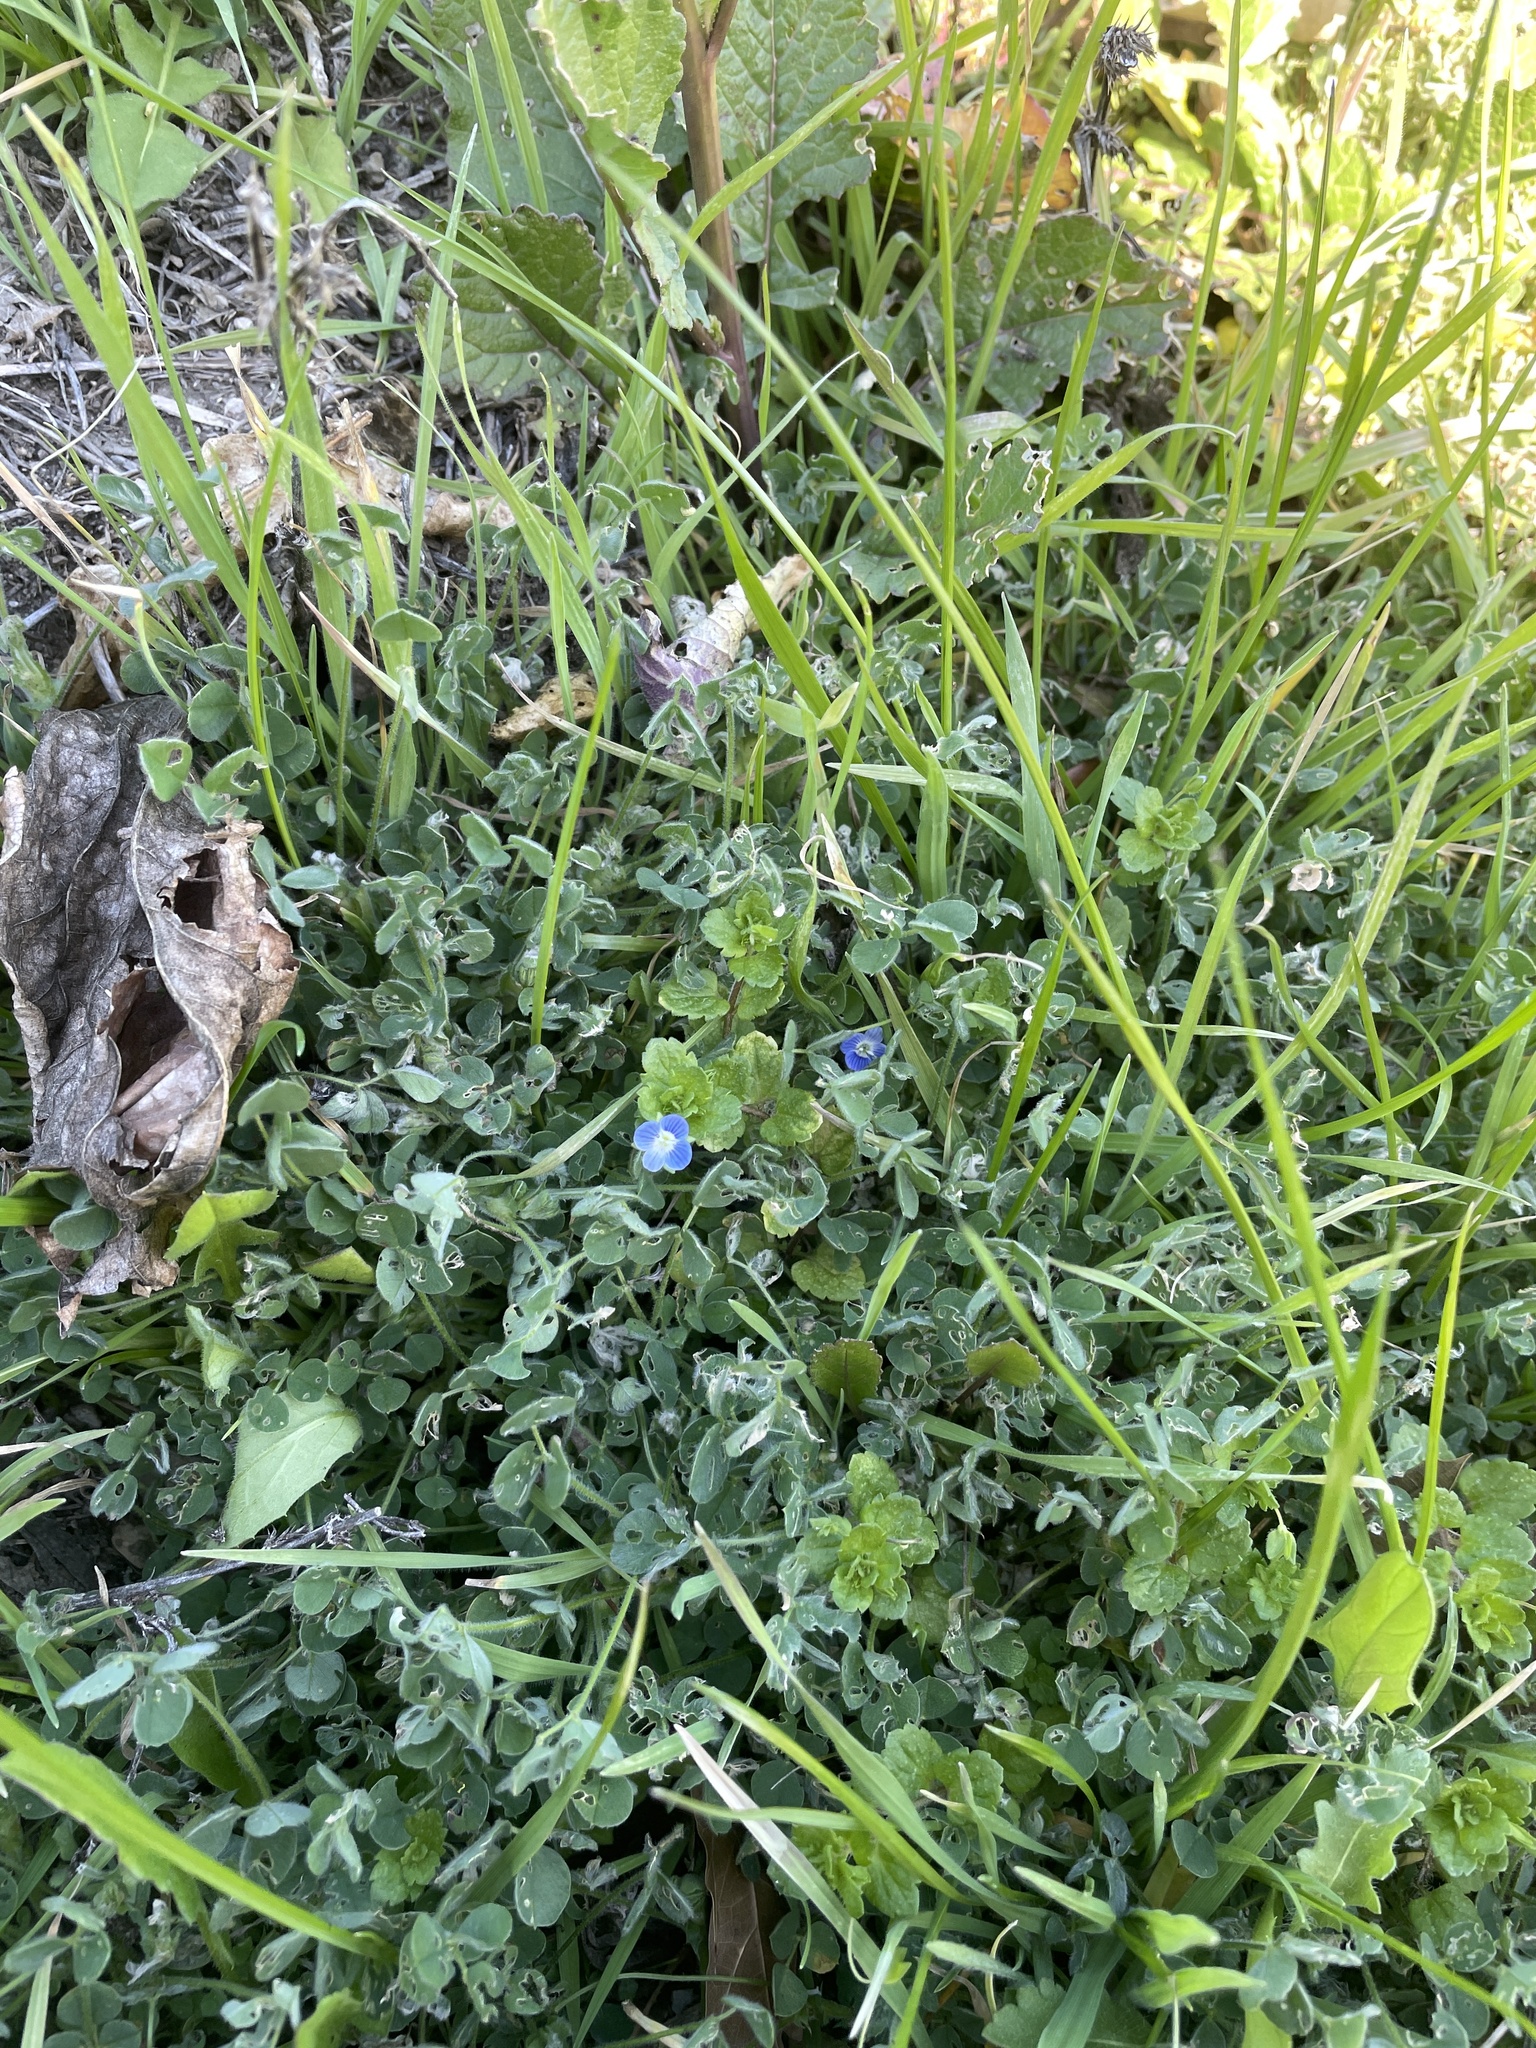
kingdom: Plantae
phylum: Tracheophyta
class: Magnoliopsida
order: Lamiales
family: Plantaginaceae
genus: Veronica
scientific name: Veronica persica
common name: Common field-speedwell
